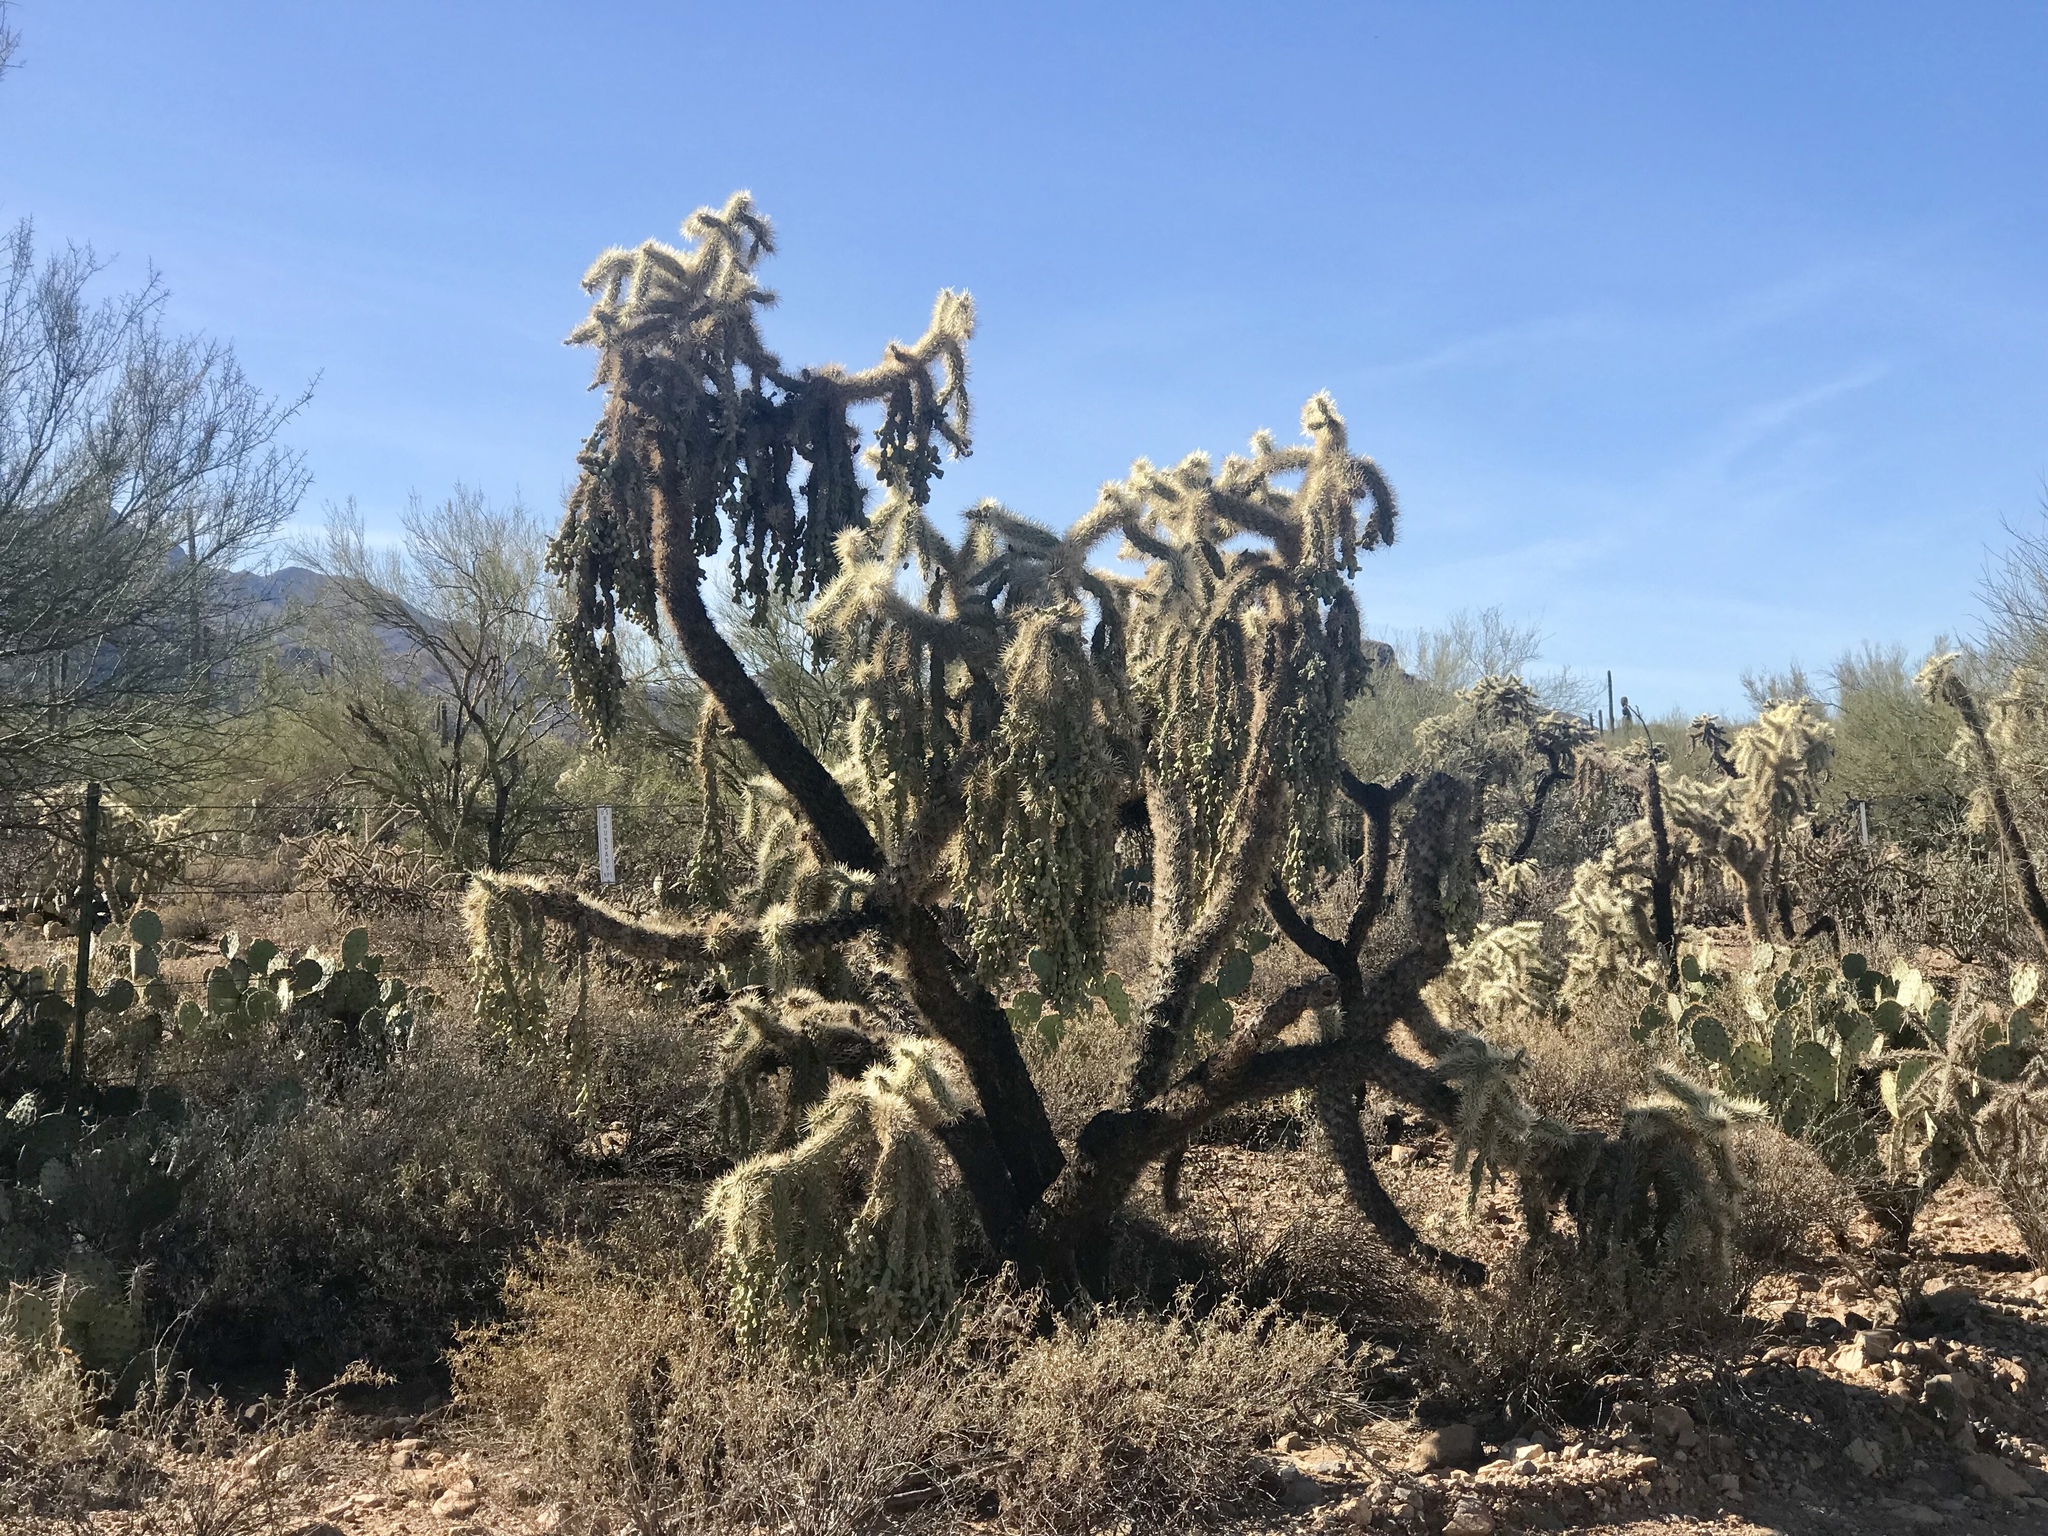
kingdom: Plantae
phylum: Tracheophyta
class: Magnoliopsida
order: Caryophyllales
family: Cactaceae
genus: Cylindropuntia
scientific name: Cylindropuntia fulgida
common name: Jumping cholla
